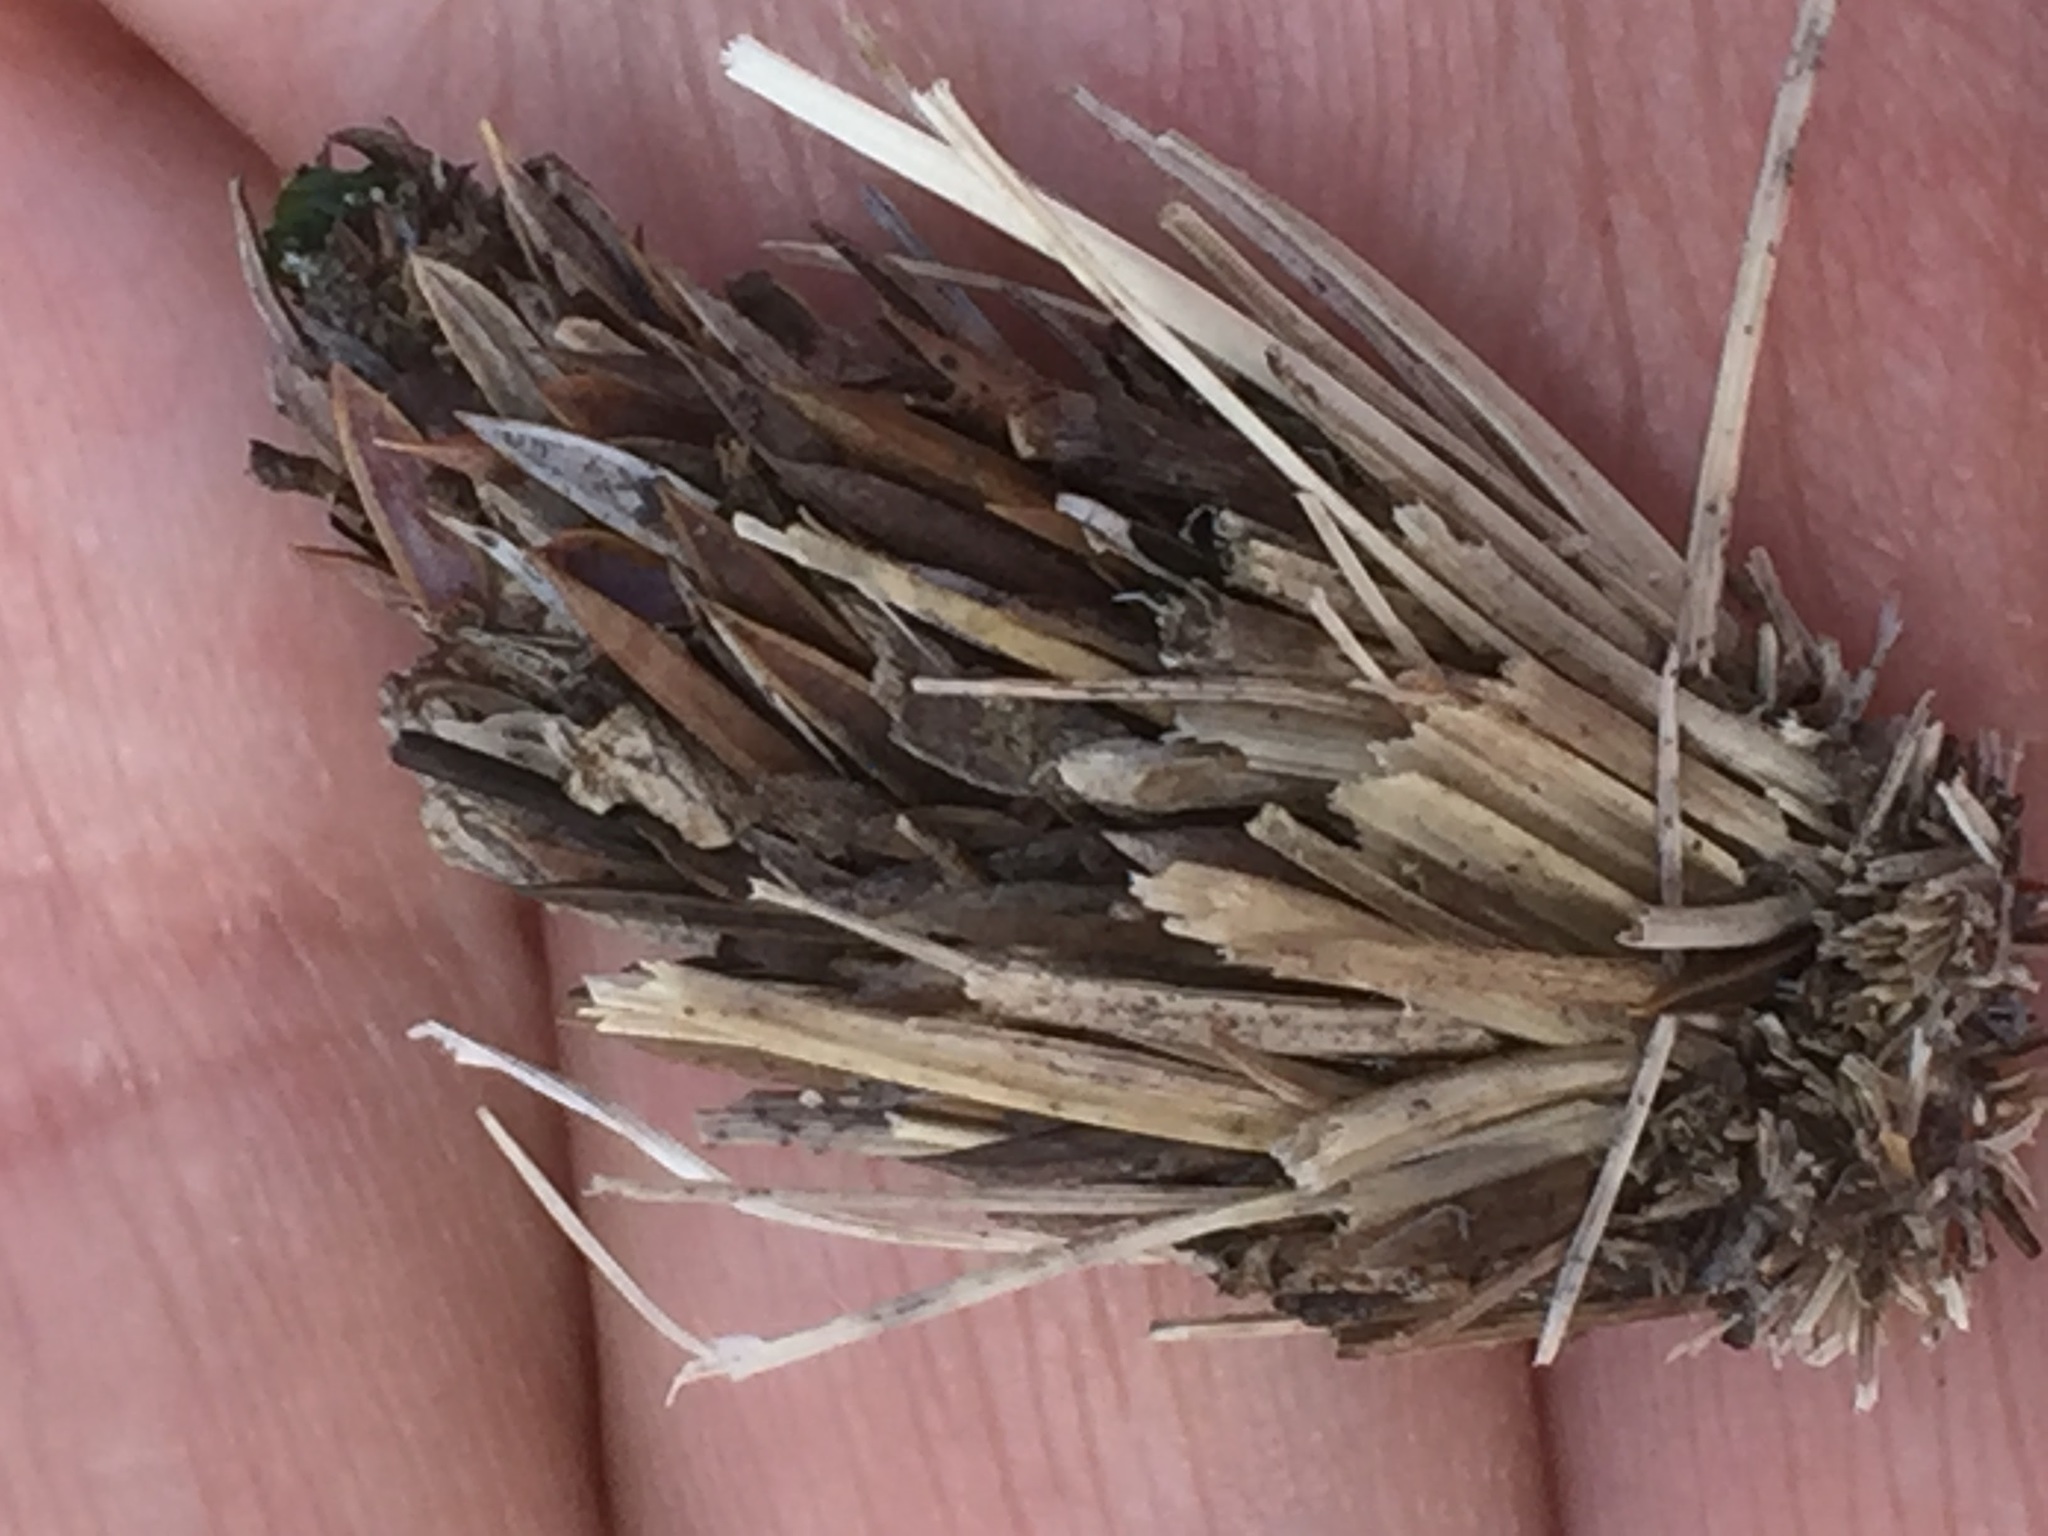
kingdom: Animalia
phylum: Arthropoda
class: Insecta
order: Lepidoptera
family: Psychidae
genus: Oiketicoides
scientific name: Oiketicoides febretta
